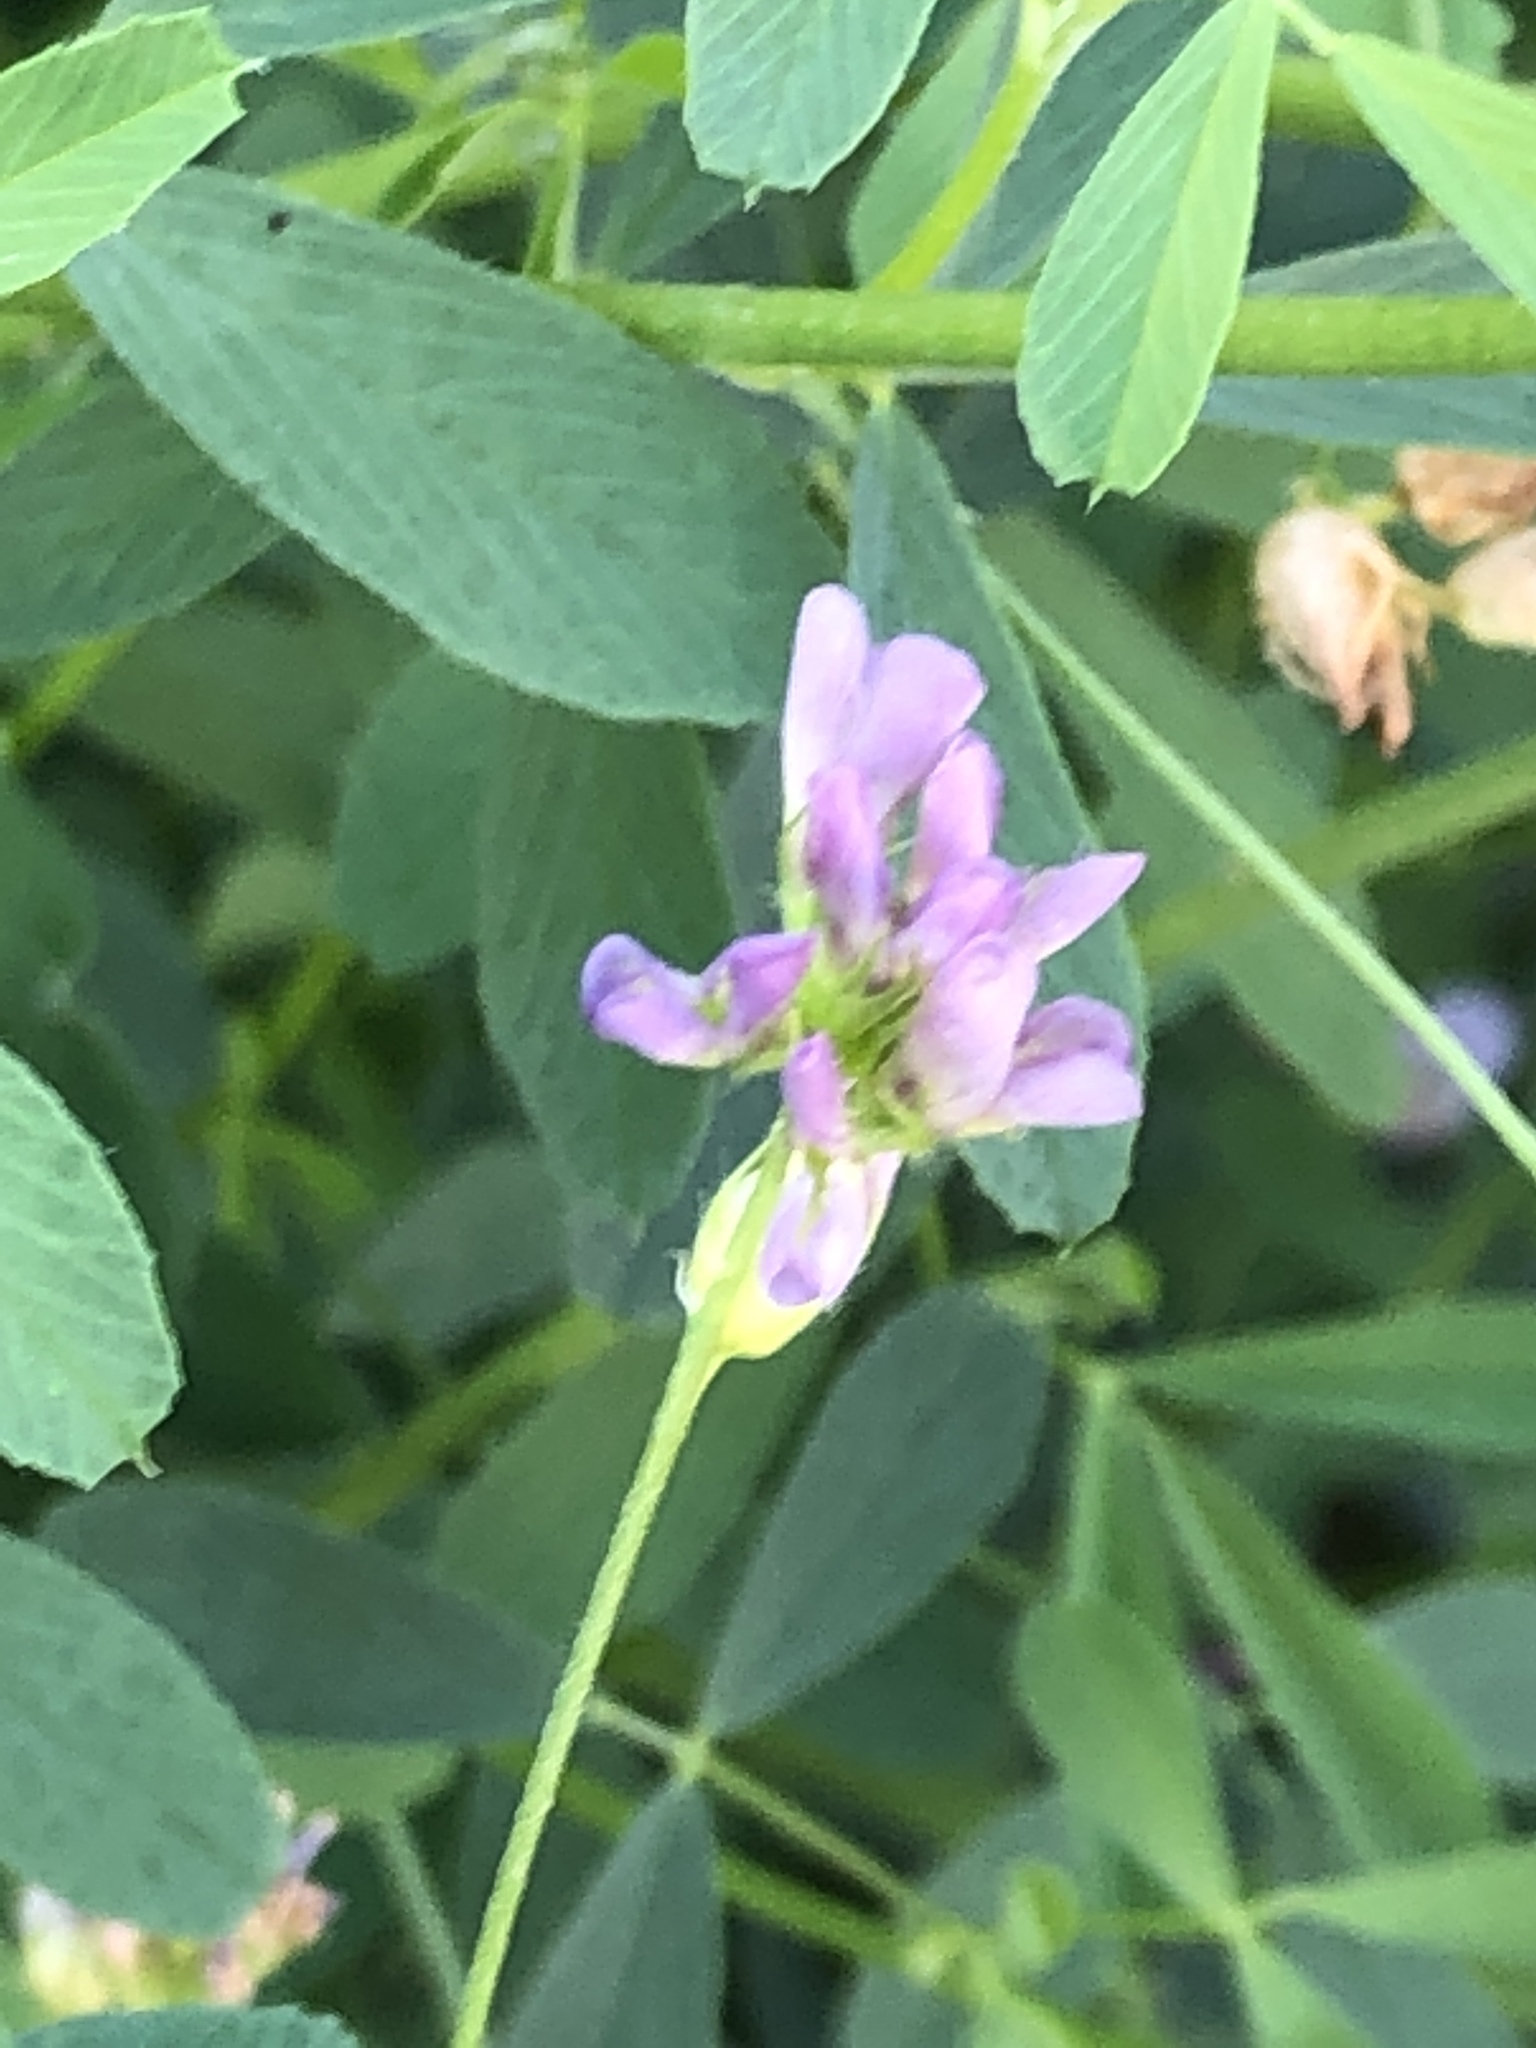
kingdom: Plantae
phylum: Tracheophyta
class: Magnoliopsida
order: Fabales
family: Fabaceae
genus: Medicago
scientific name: Medicago sativa
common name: Alfalfa
